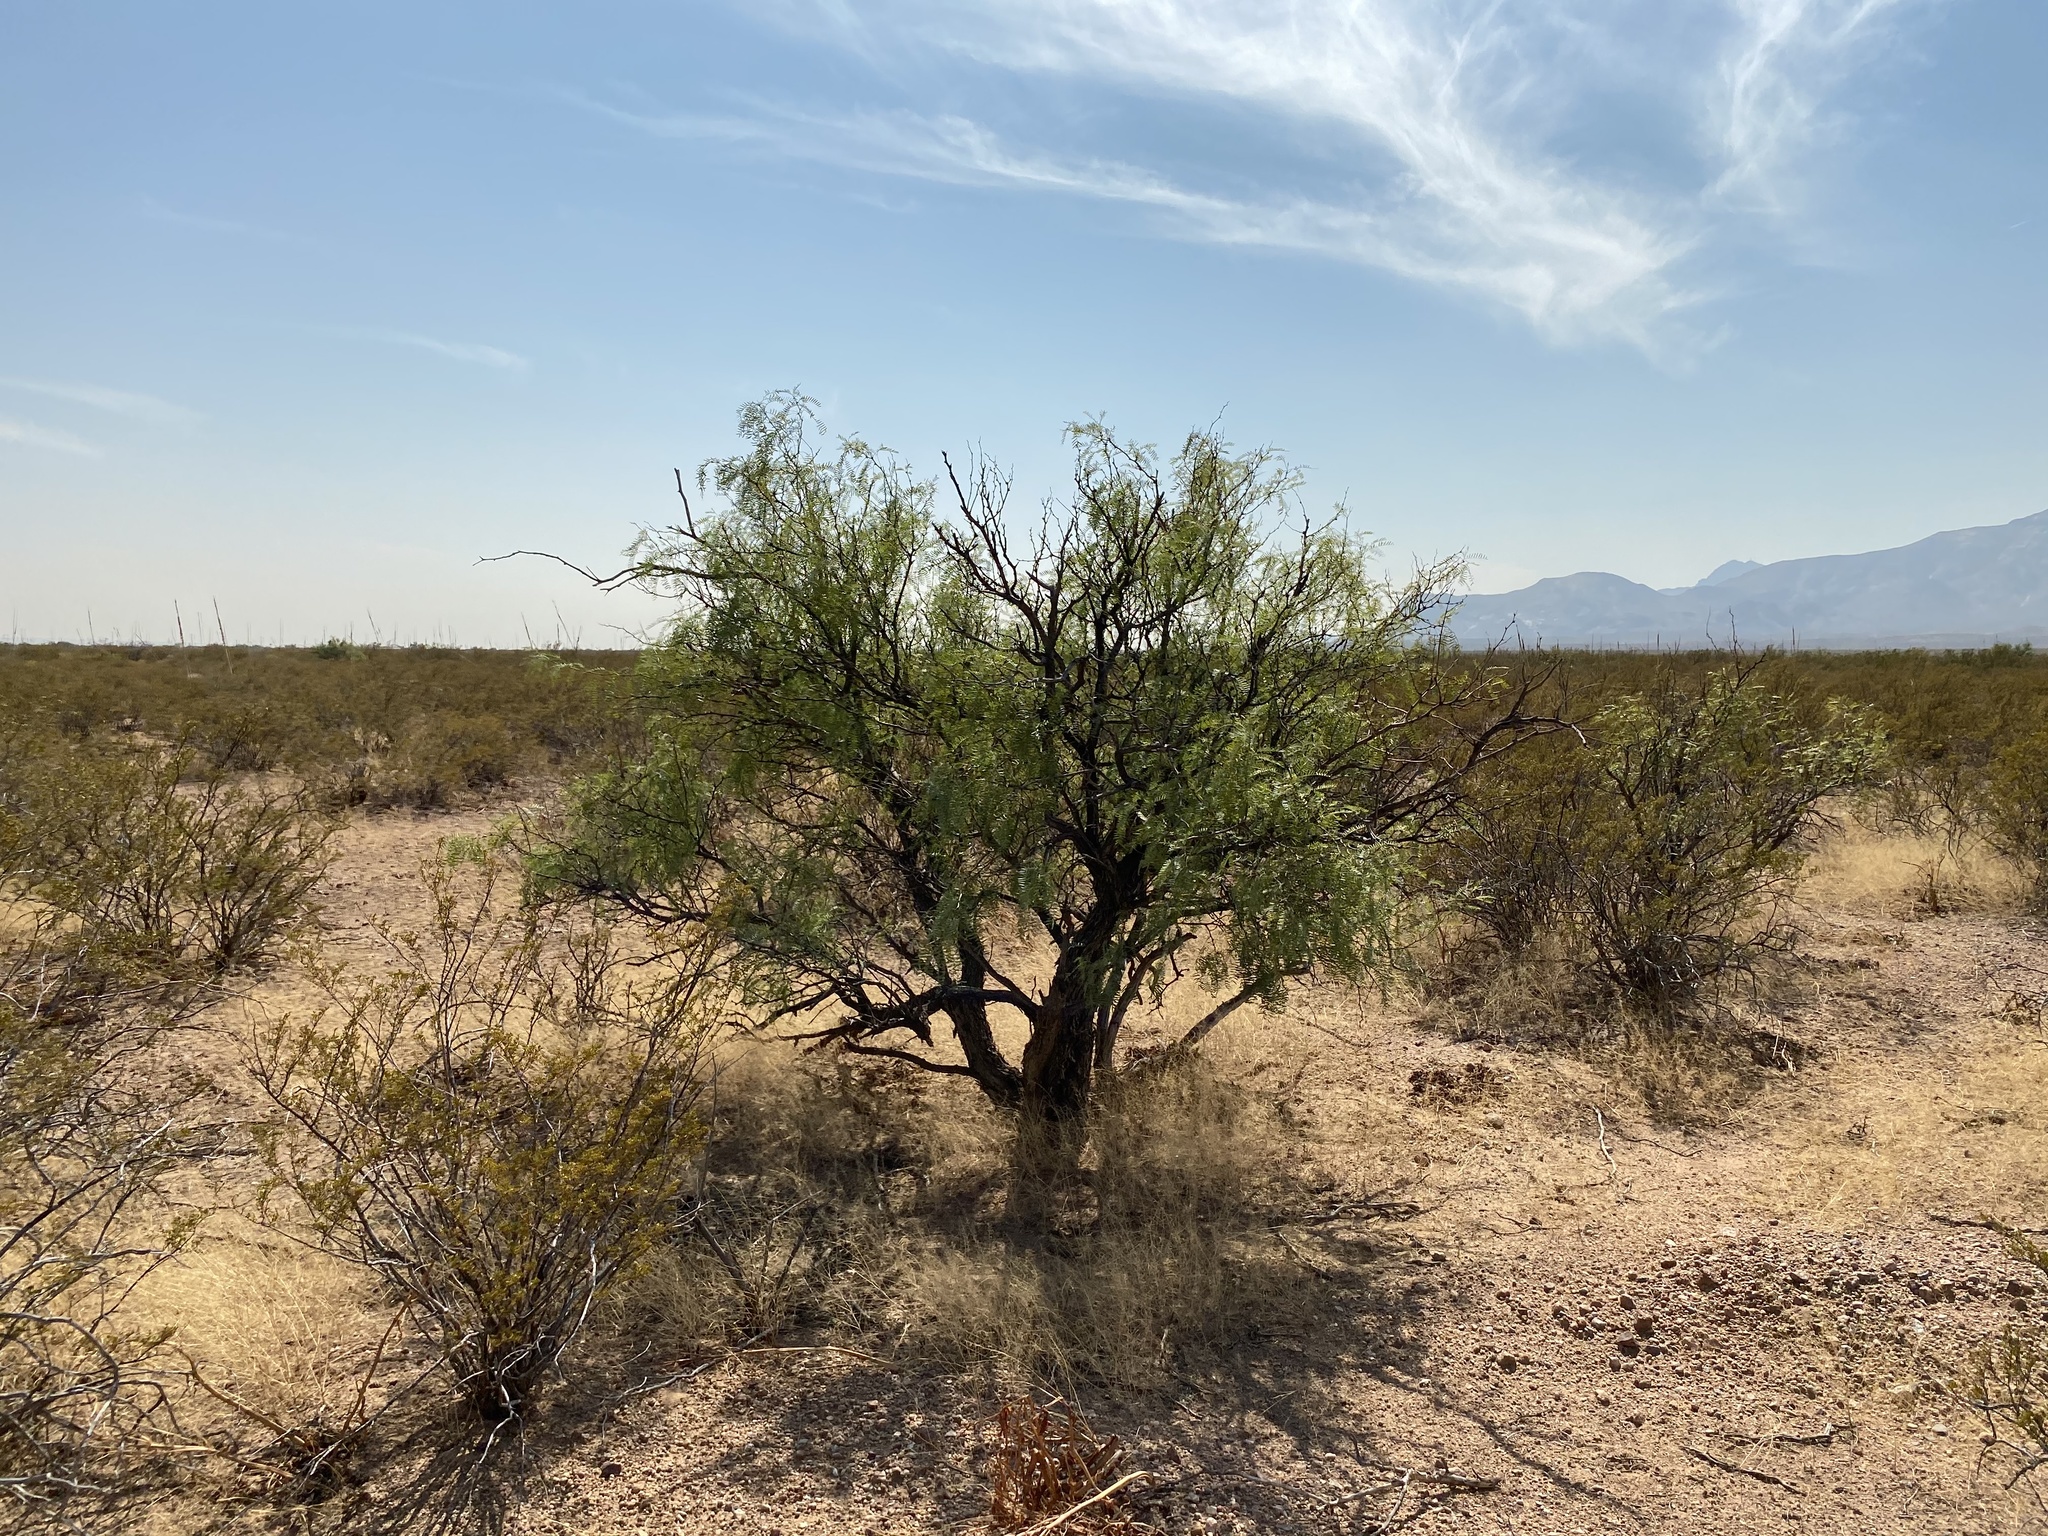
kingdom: Plantae
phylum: Tracheophyta
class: Magnoliopsida
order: Fabales
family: Fabaceae
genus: Prosopis
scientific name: Prosopis glandulosa
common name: Honey mesquite
